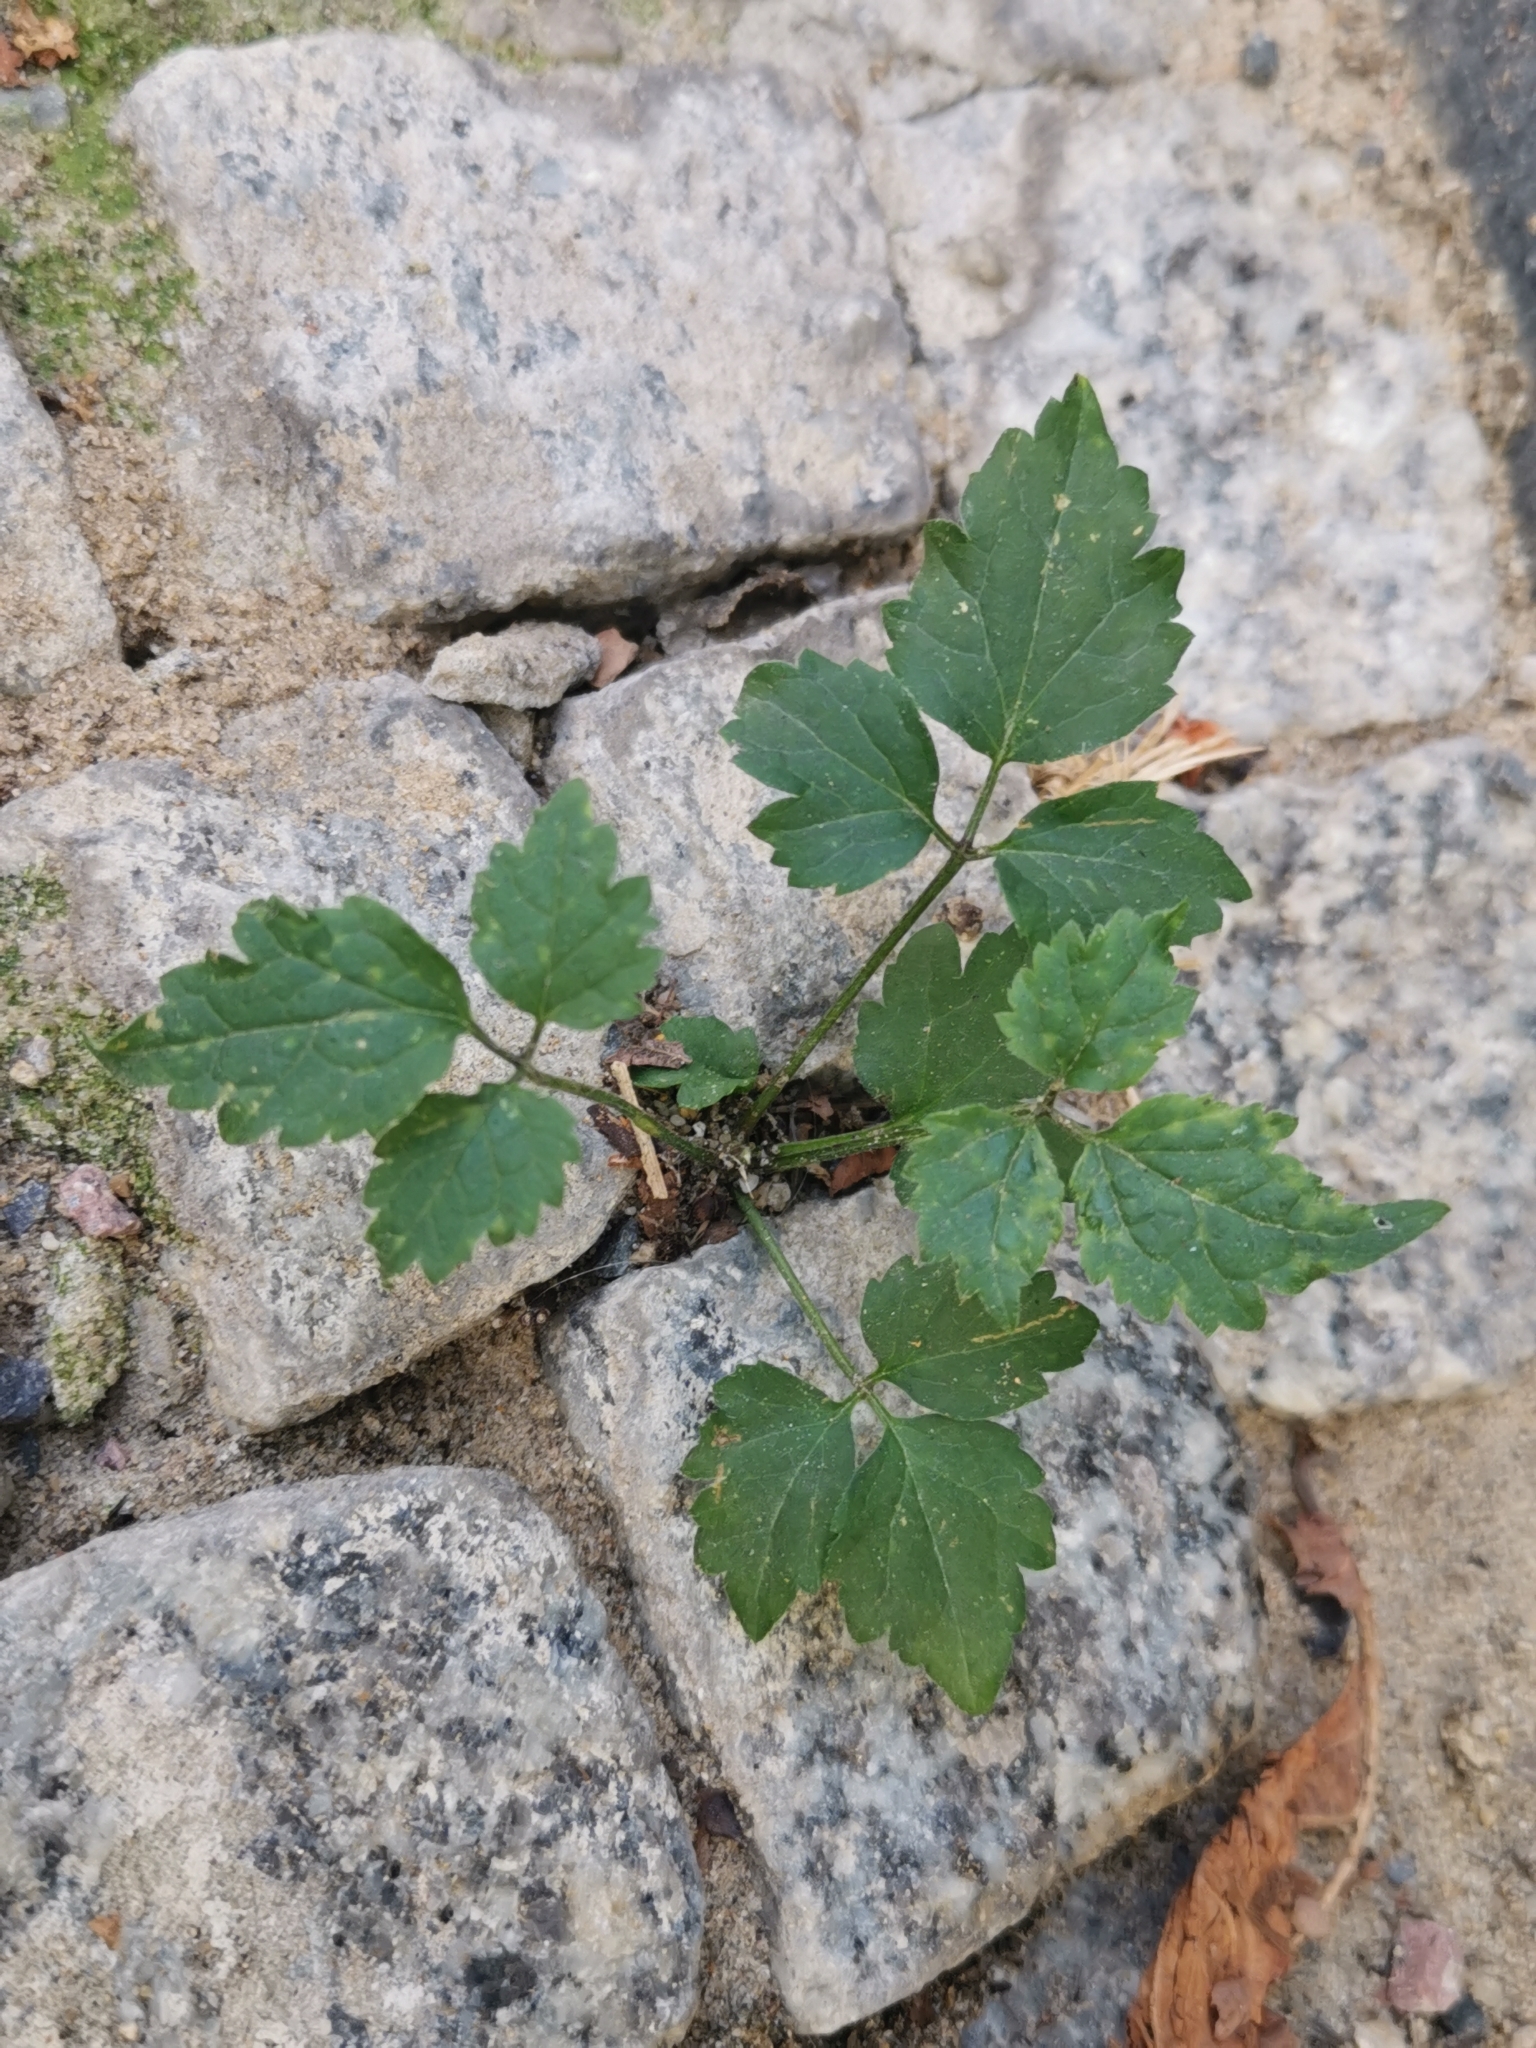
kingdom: Plantae
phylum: Tracheophyta
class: Magnoliopsida
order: Ranunculales
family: Ranunculaceae
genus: Clematis
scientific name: Clematis vitalba
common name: Evergreen clematis
